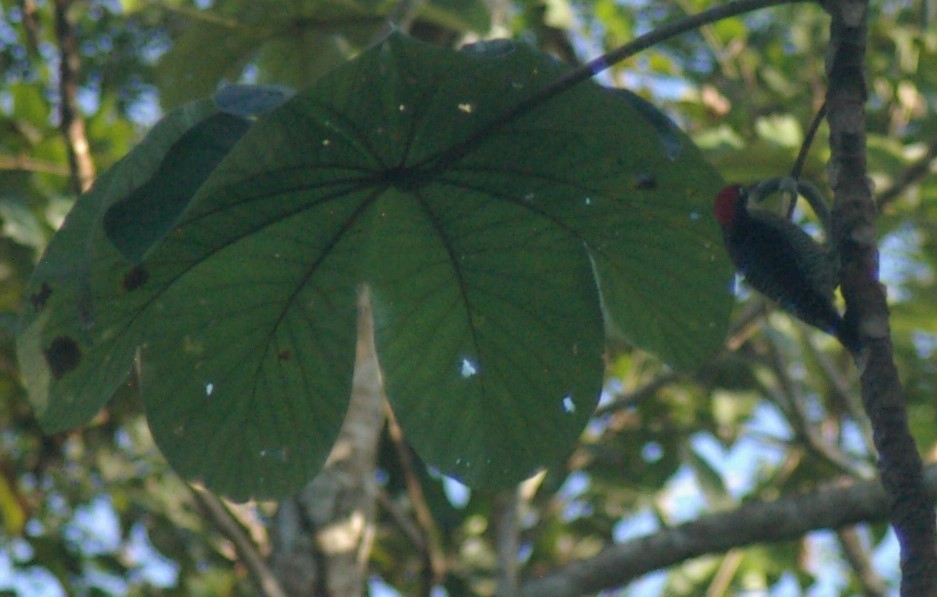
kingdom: Animalia
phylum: Chordata
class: Aves
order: Piciformes
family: Picidae
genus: Melanerpes
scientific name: Melanerpes pucherani
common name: Black-cheeked woodpecker
